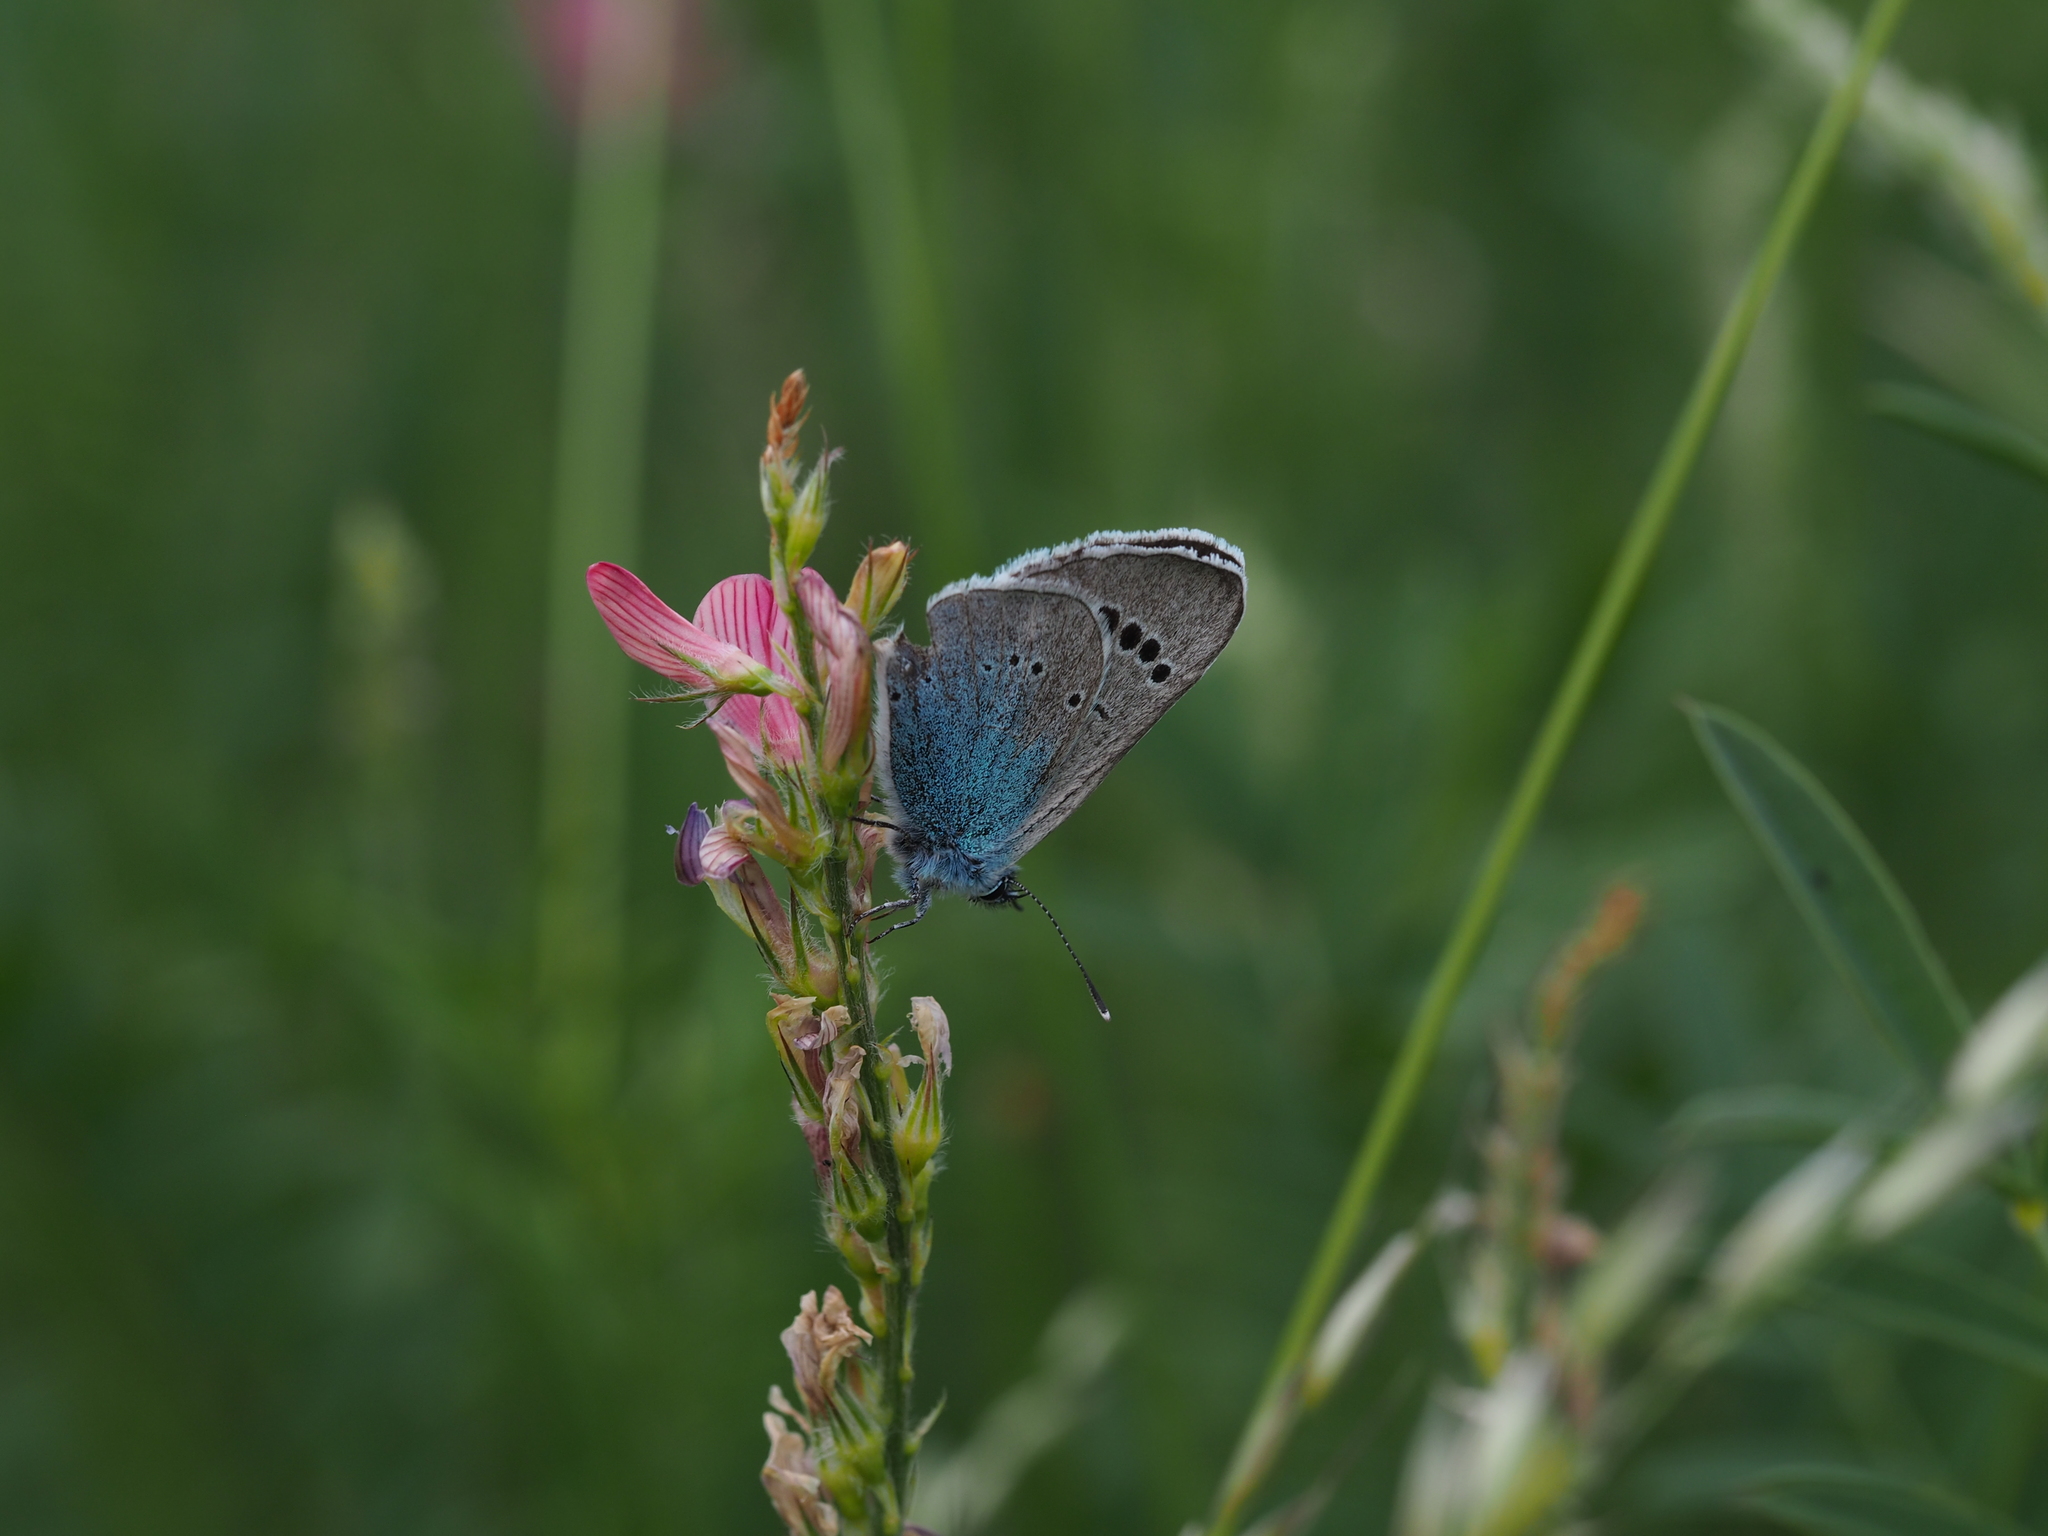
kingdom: Animalia
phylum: Arthropoda
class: Insecta
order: Lepidoptera
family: Lycaenidae
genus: Glaucopsyche
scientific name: Glaucopsyche alexis
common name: Green-underside blue
